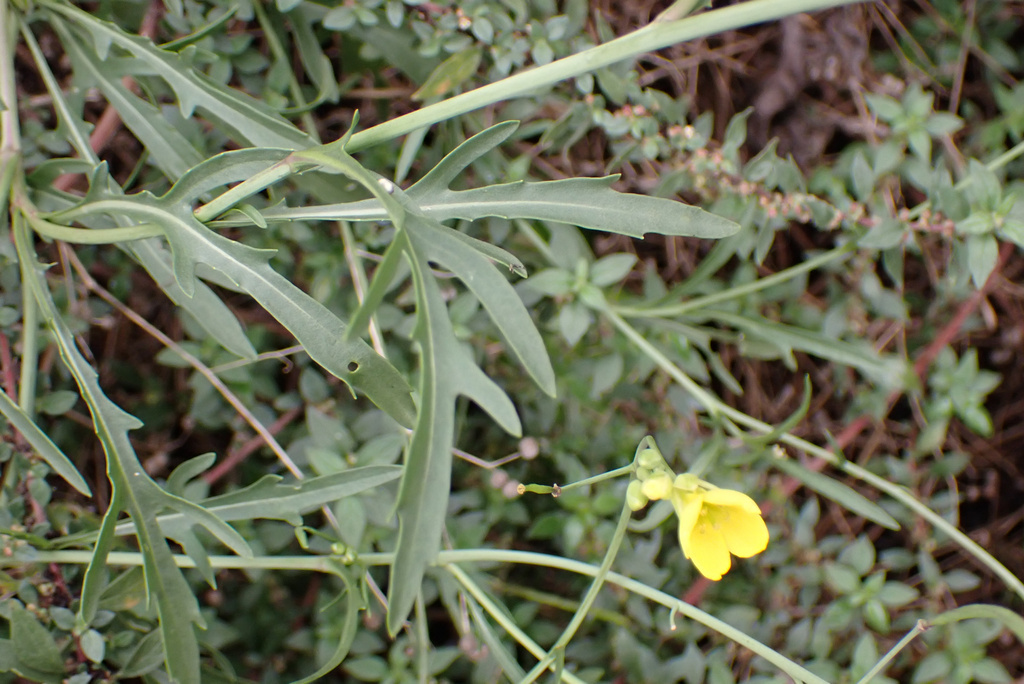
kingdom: Plantae
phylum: Tracheophyta
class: Magnoliopsida
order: Brassicales
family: Brassicaceae
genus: Diplotaxis
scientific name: Diplotaxis tenuifolia
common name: Perennial wall-rocket
